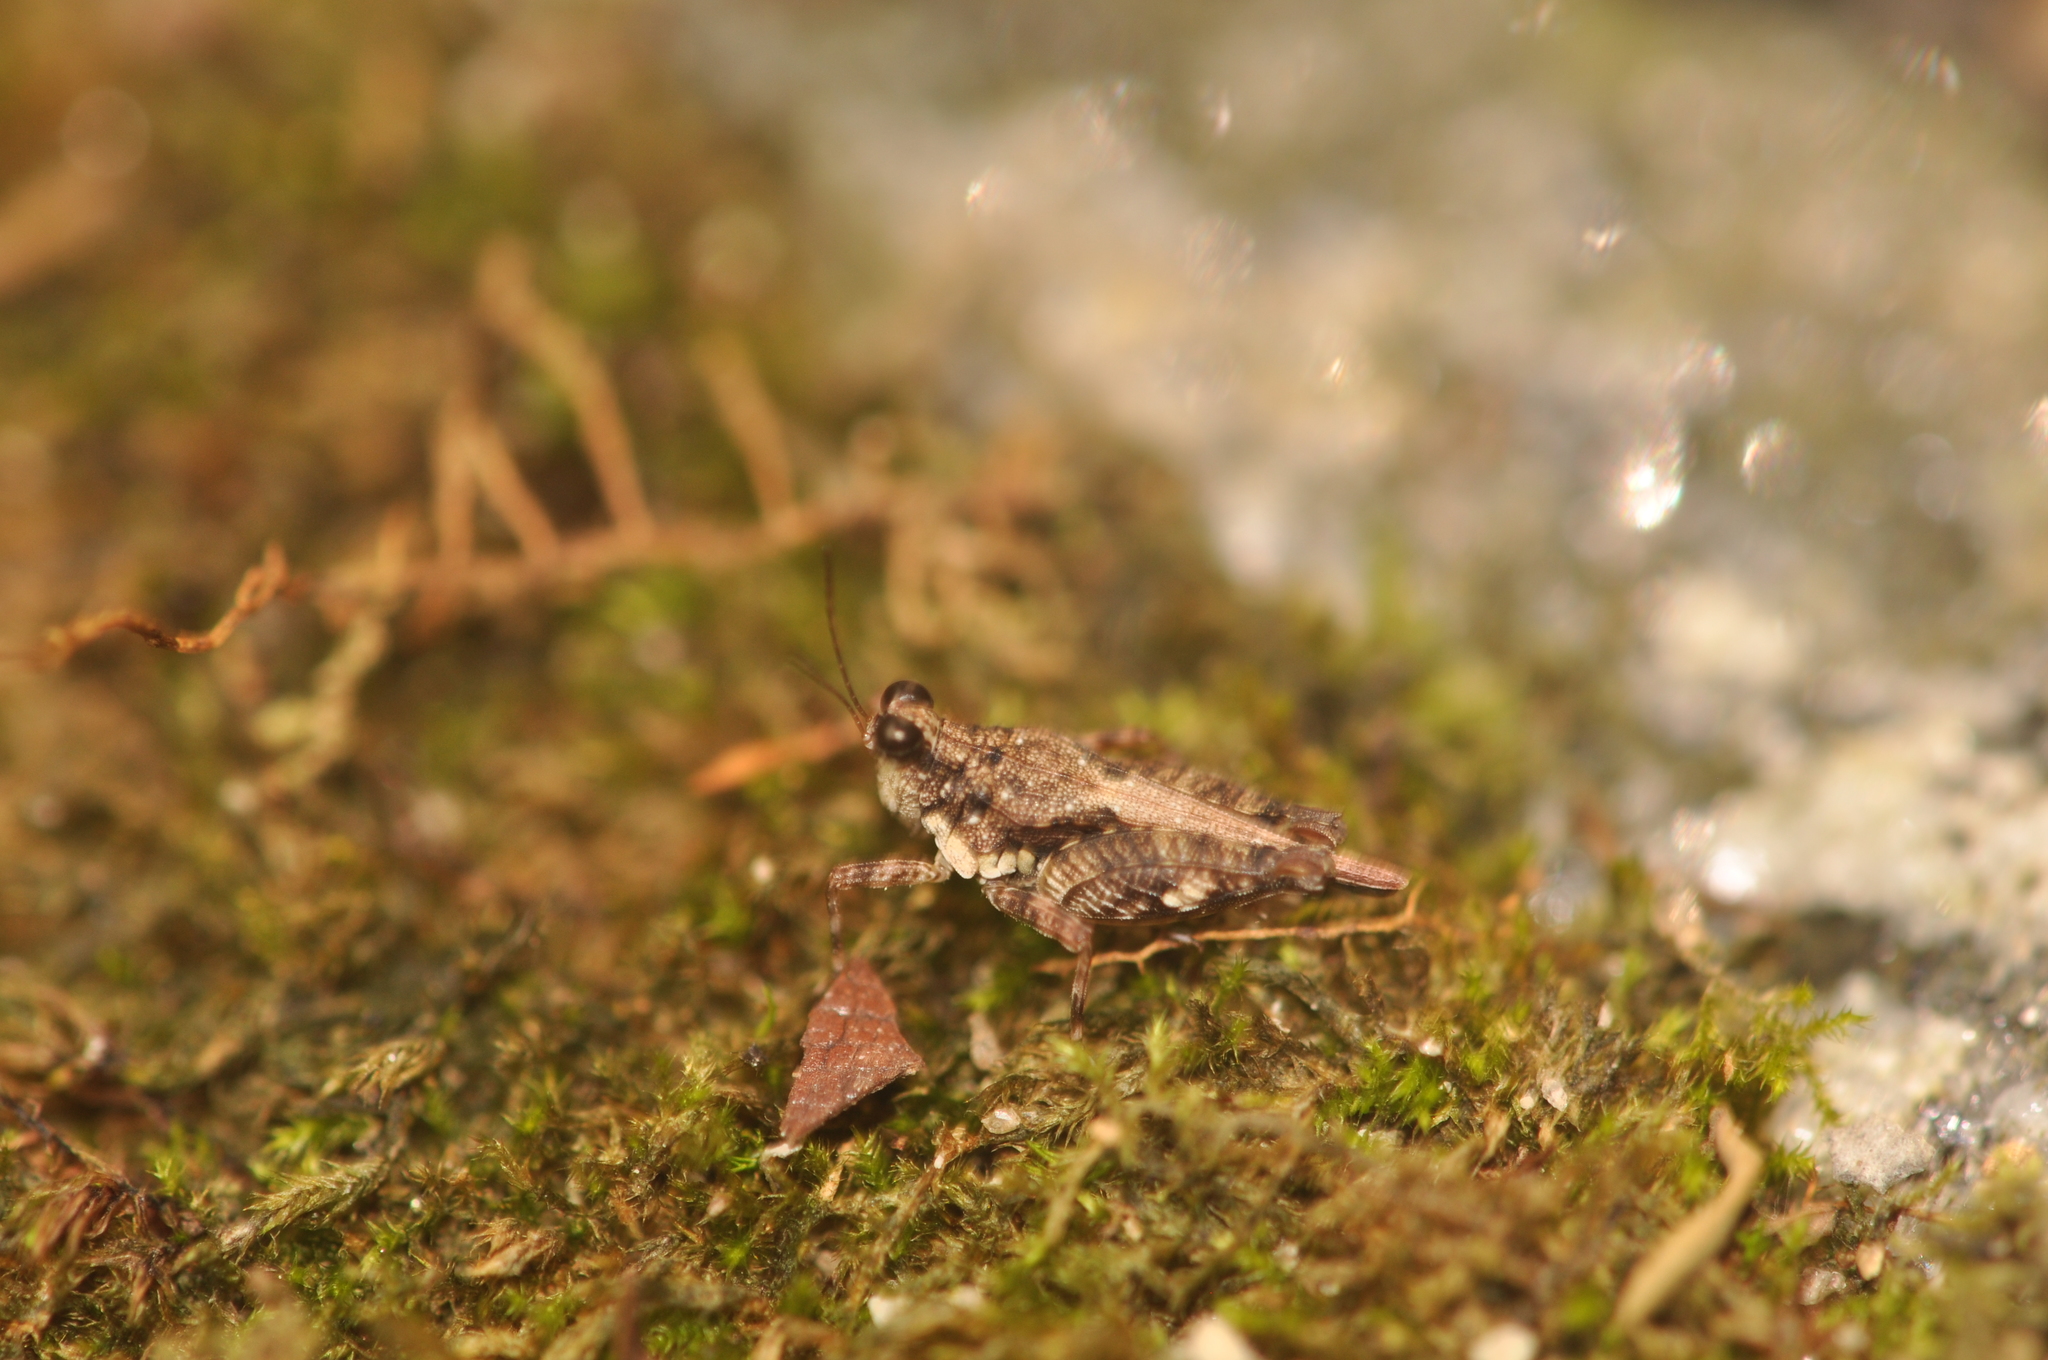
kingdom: Animalia
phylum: Arthropoda
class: Insecta
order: Orthoptera
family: Tetrigidae
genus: Pseudosystolederus
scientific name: Pseudosystolederus follvikae
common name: Follvik's boulder pygmy grasshopper
